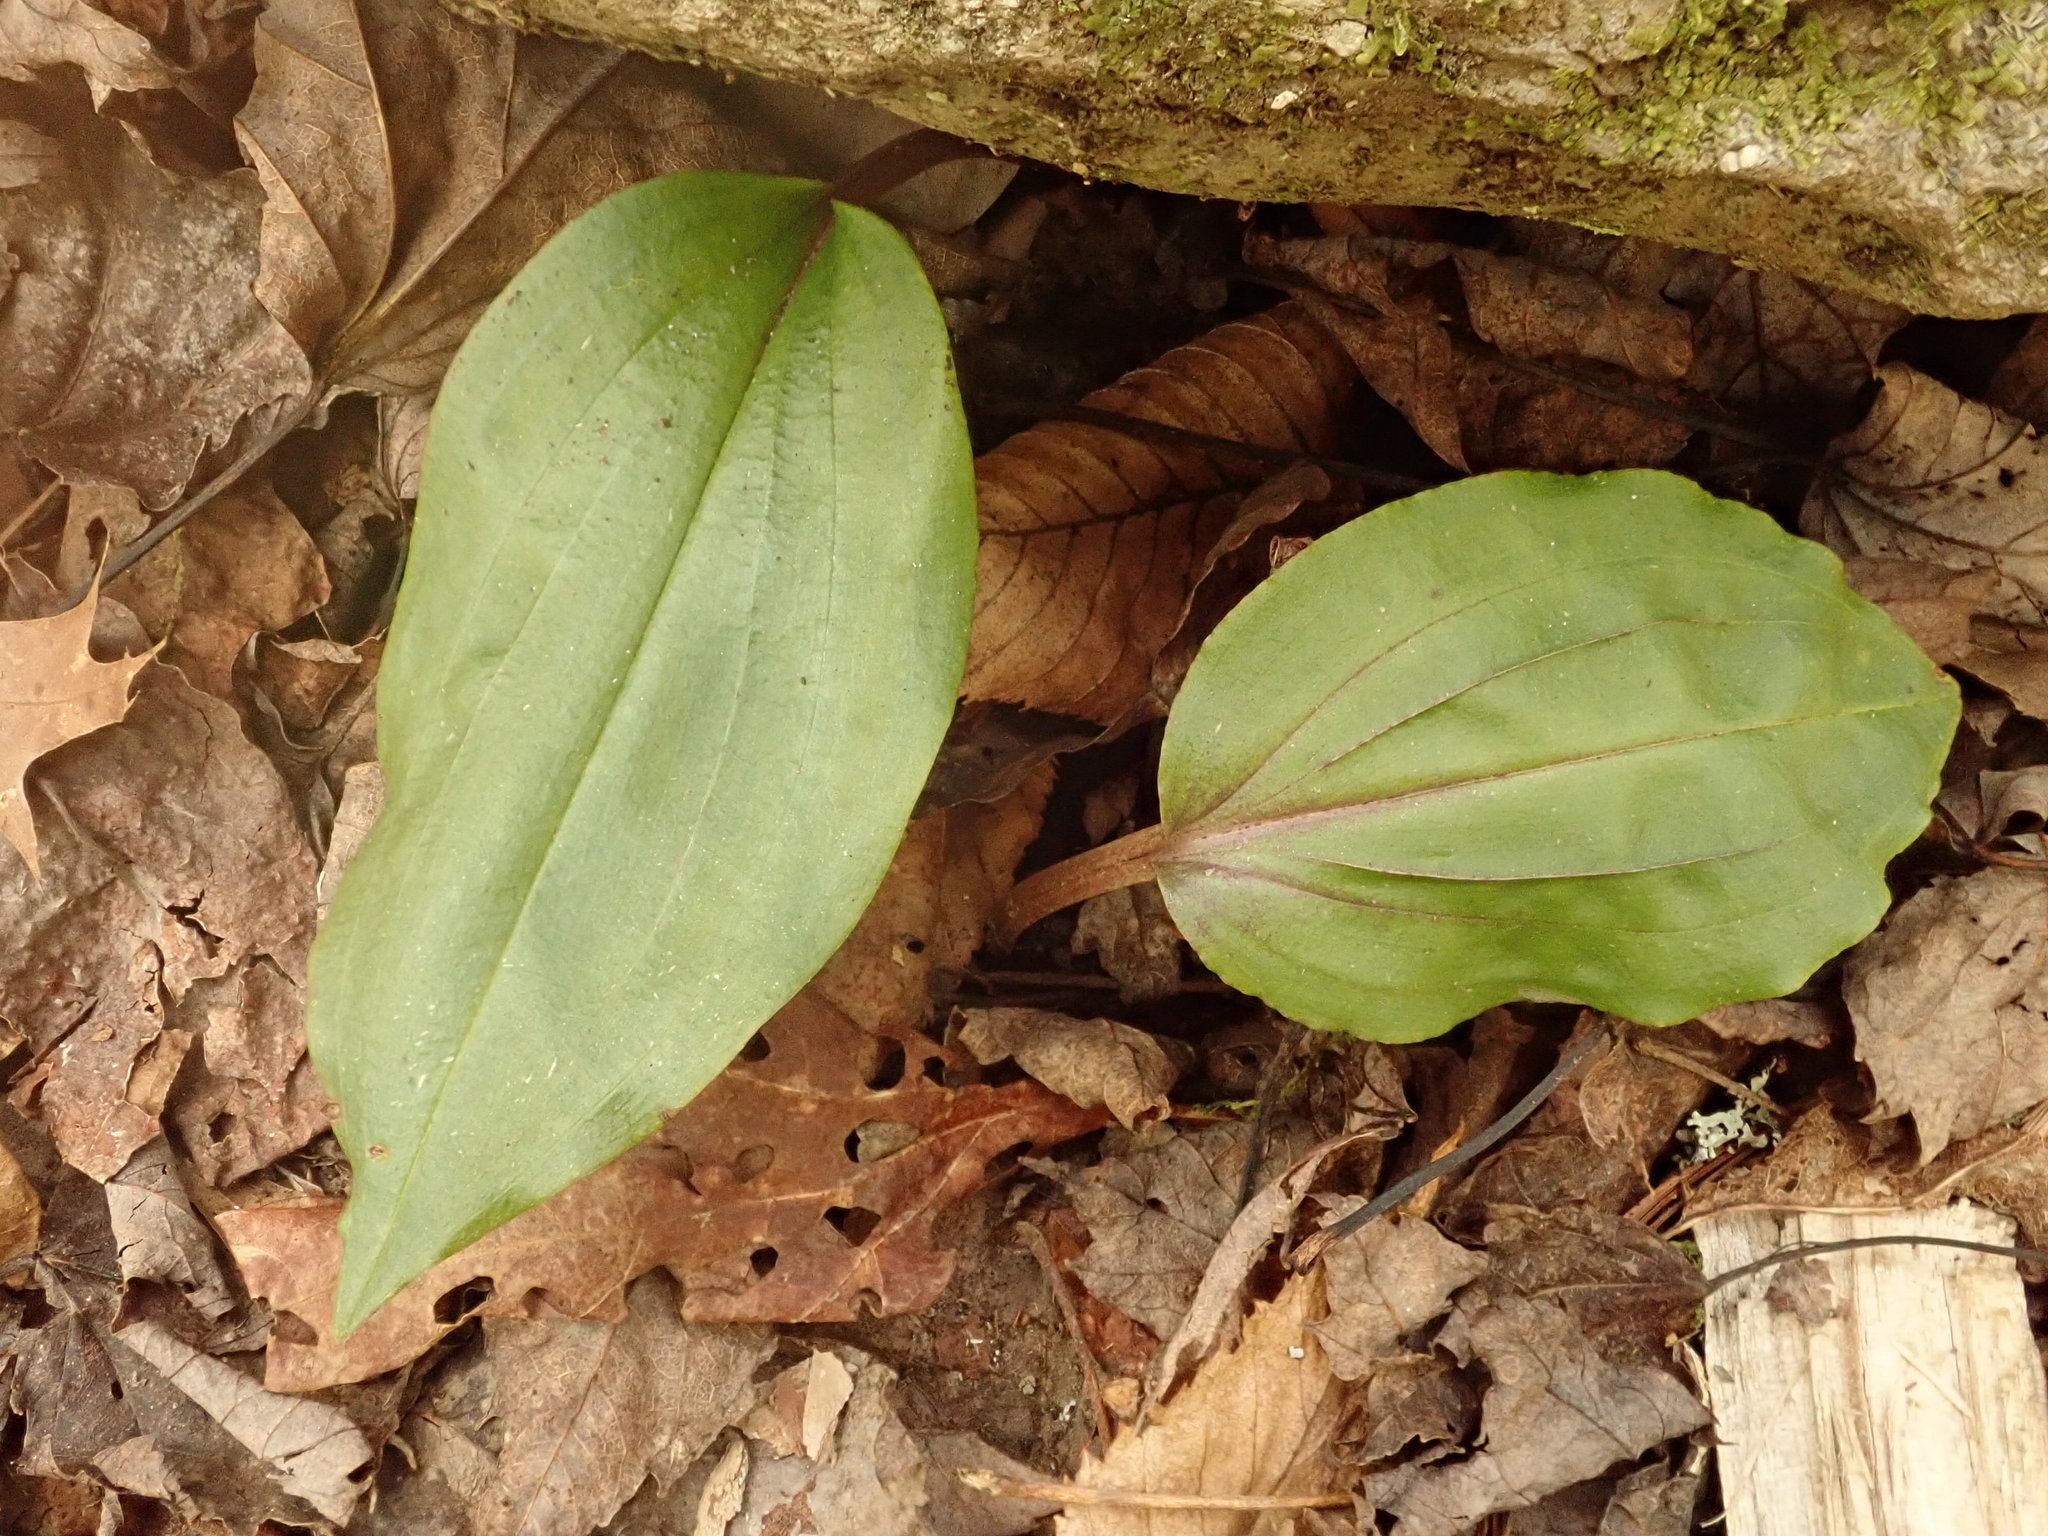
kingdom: Plantae
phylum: Tracheophyta
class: Liliopsida
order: Asparagales
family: Orchidaceae
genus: Tipularia
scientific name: Tipularia discolor
